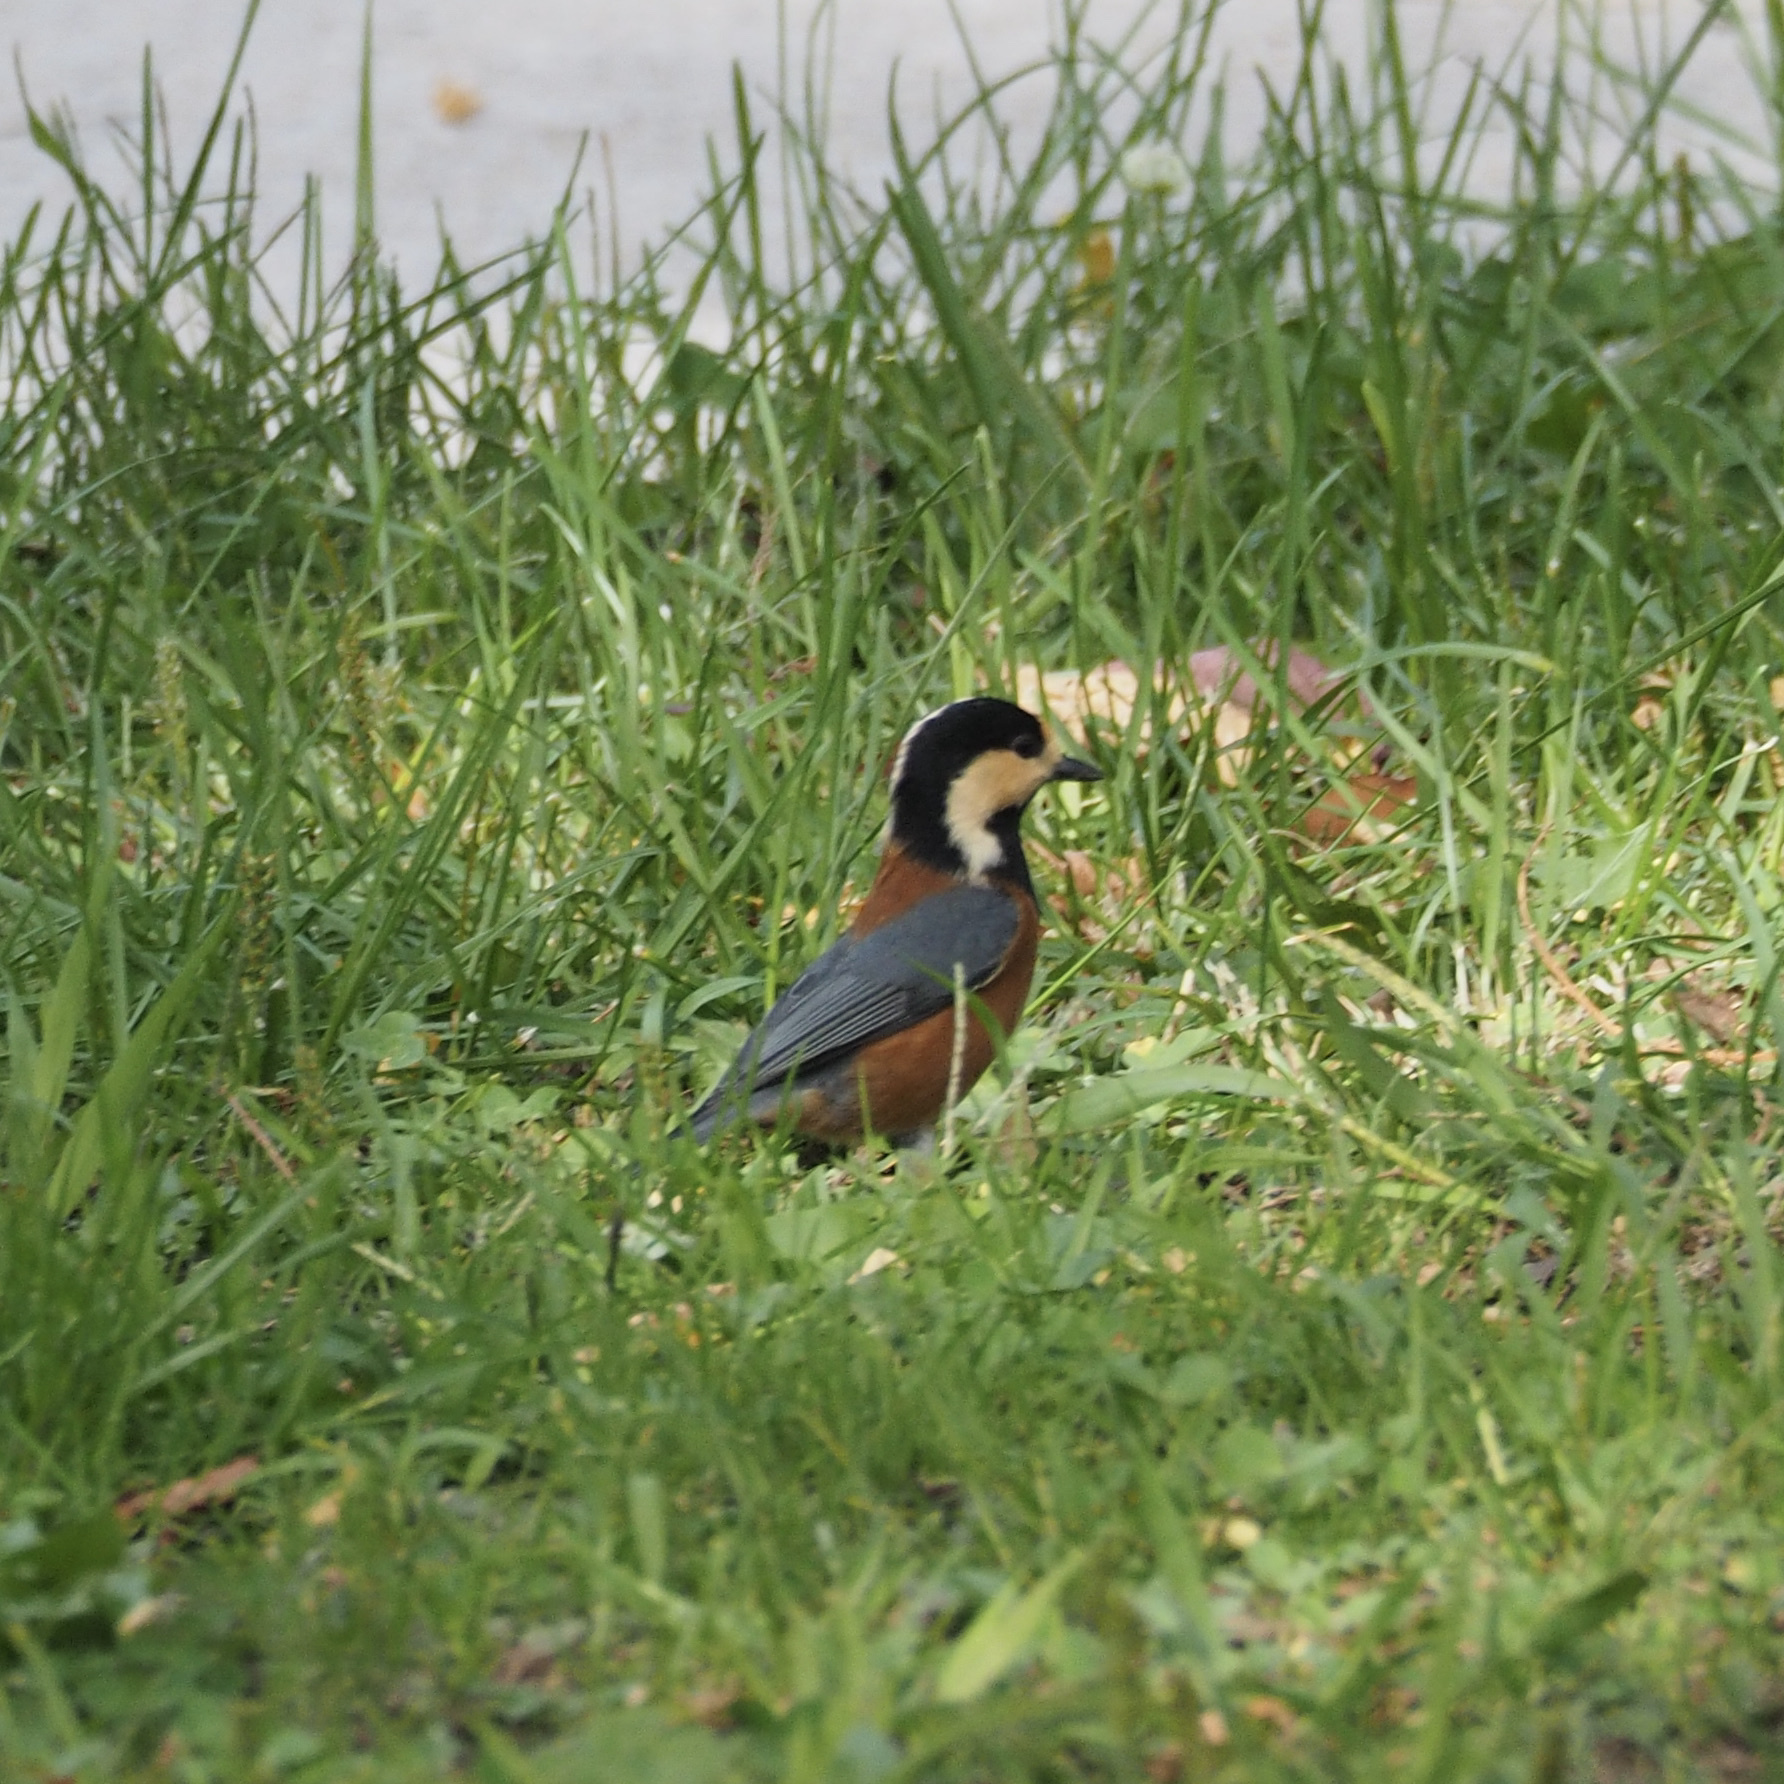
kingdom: Animalia
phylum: Chordata
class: Aves
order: Passeriformes
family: Paridae
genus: Poecile
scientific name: Poecile varius
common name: Varied tit
